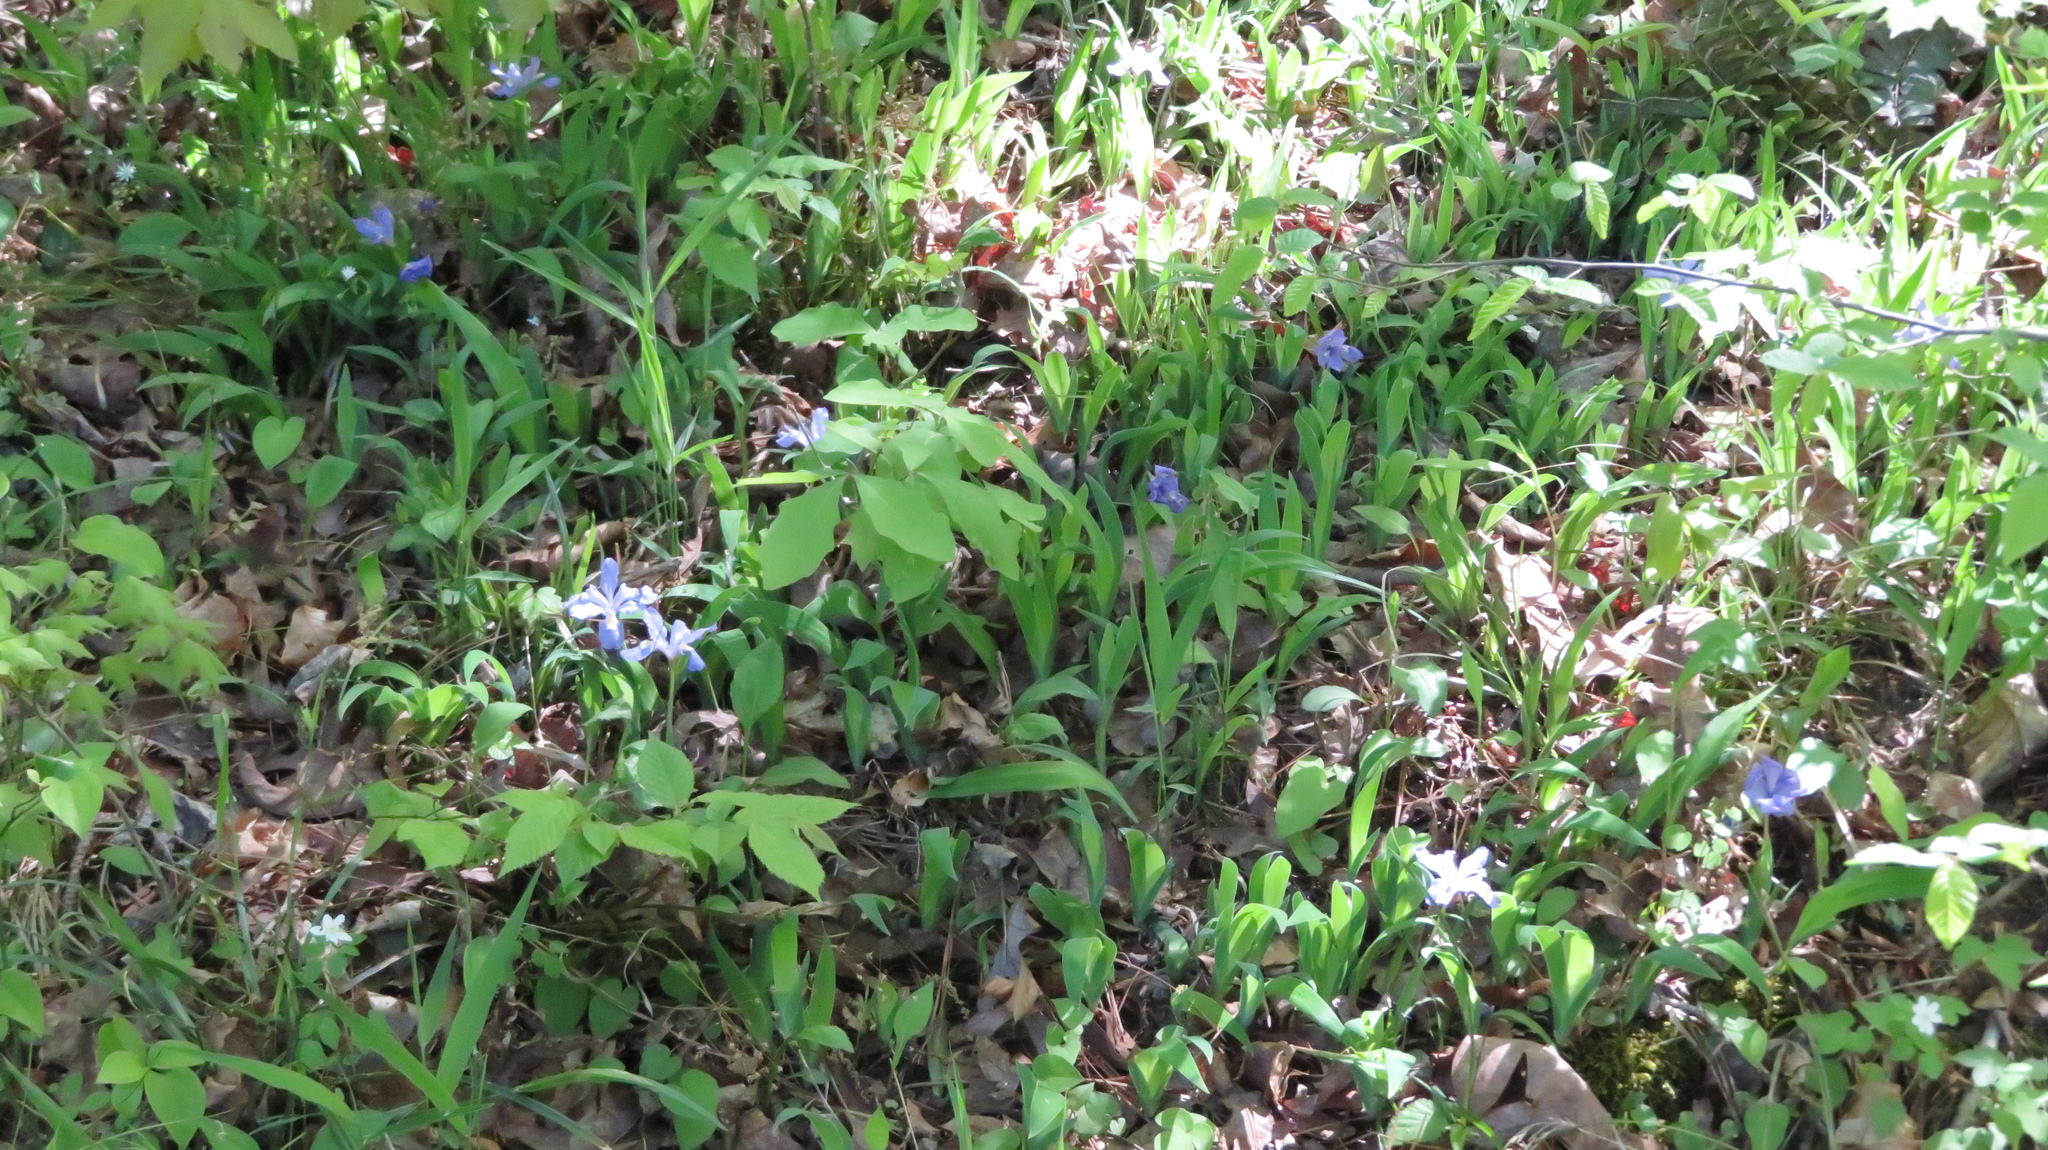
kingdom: Plantae
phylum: Tracheophyta
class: Liliopsida
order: Asparagales
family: Iridaceae
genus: Iris
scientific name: Iris cristata
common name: Crested iris
